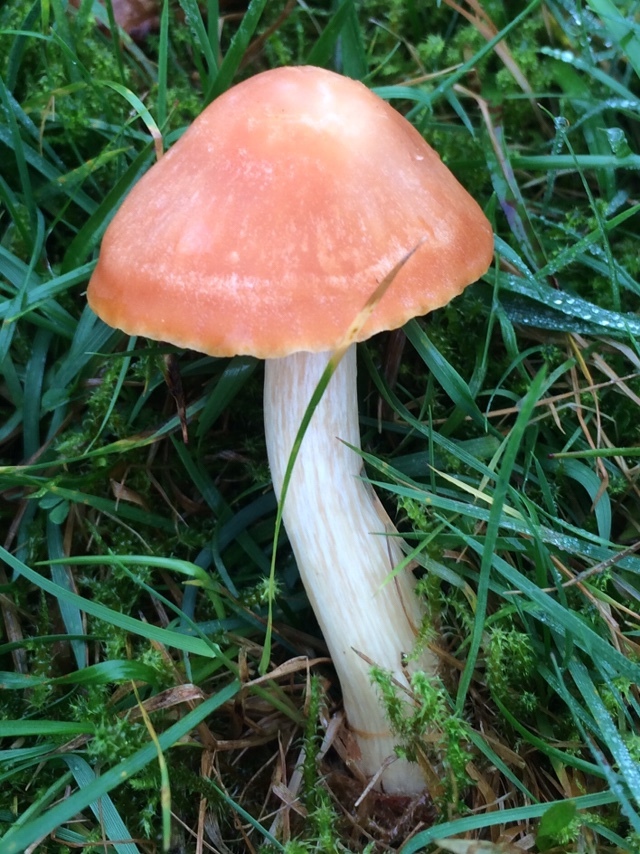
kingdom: Fungi
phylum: Basidiomycota
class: Agaricomycetes
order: Agaricales
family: Hygrophoraceae
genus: Cuphophyllus
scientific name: Cuphophyllus pratensis
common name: Meadow waxcap
